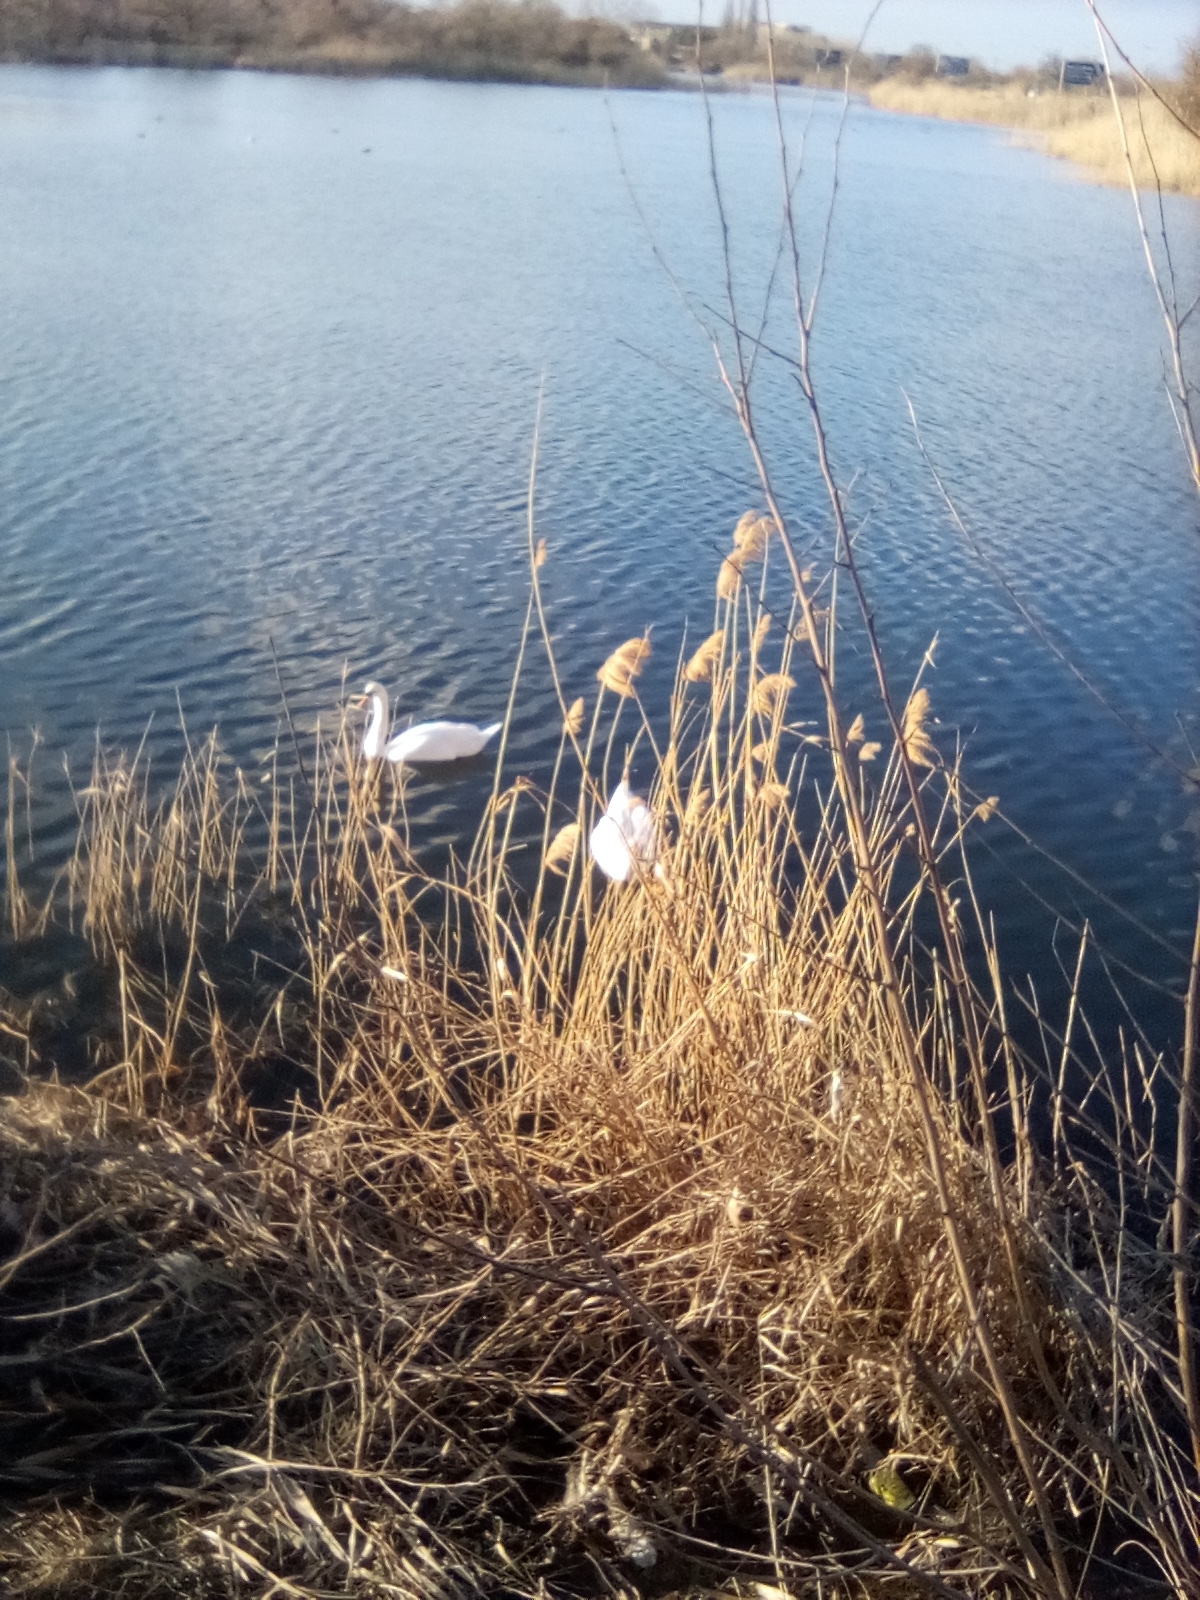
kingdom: Animalia
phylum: Chordata
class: Aves
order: Anseriformes
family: Anatidae
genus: Cygnus
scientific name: Cygnus olor
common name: Mute swan
